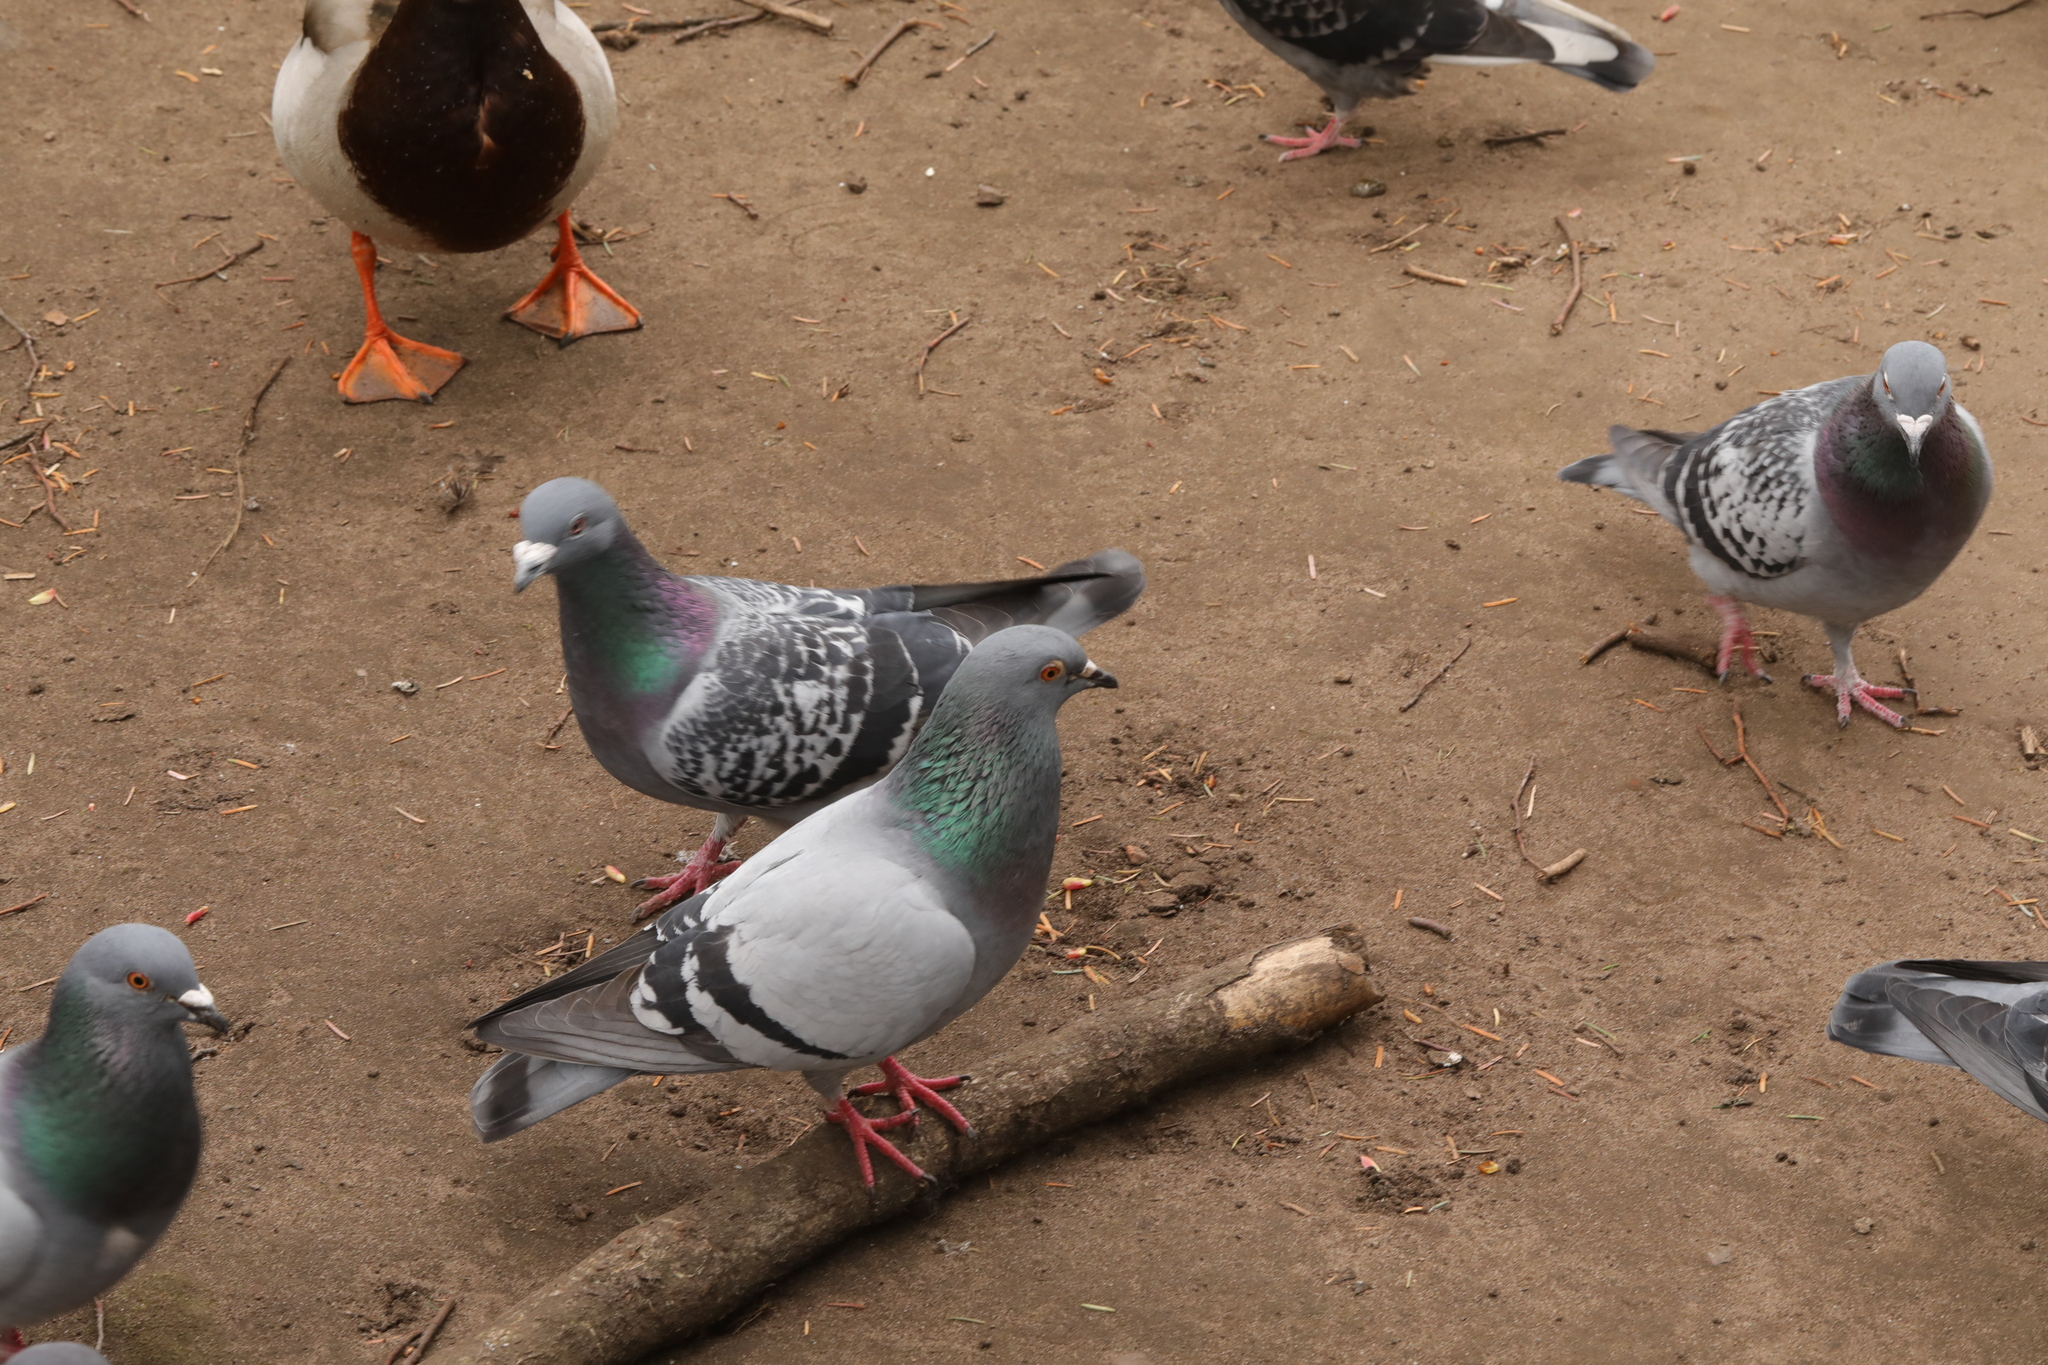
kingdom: Animalia
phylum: Chordata
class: Aves
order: Columbiformes
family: Columbidae
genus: Columba
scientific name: Columba livia
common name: Rock pigeon
